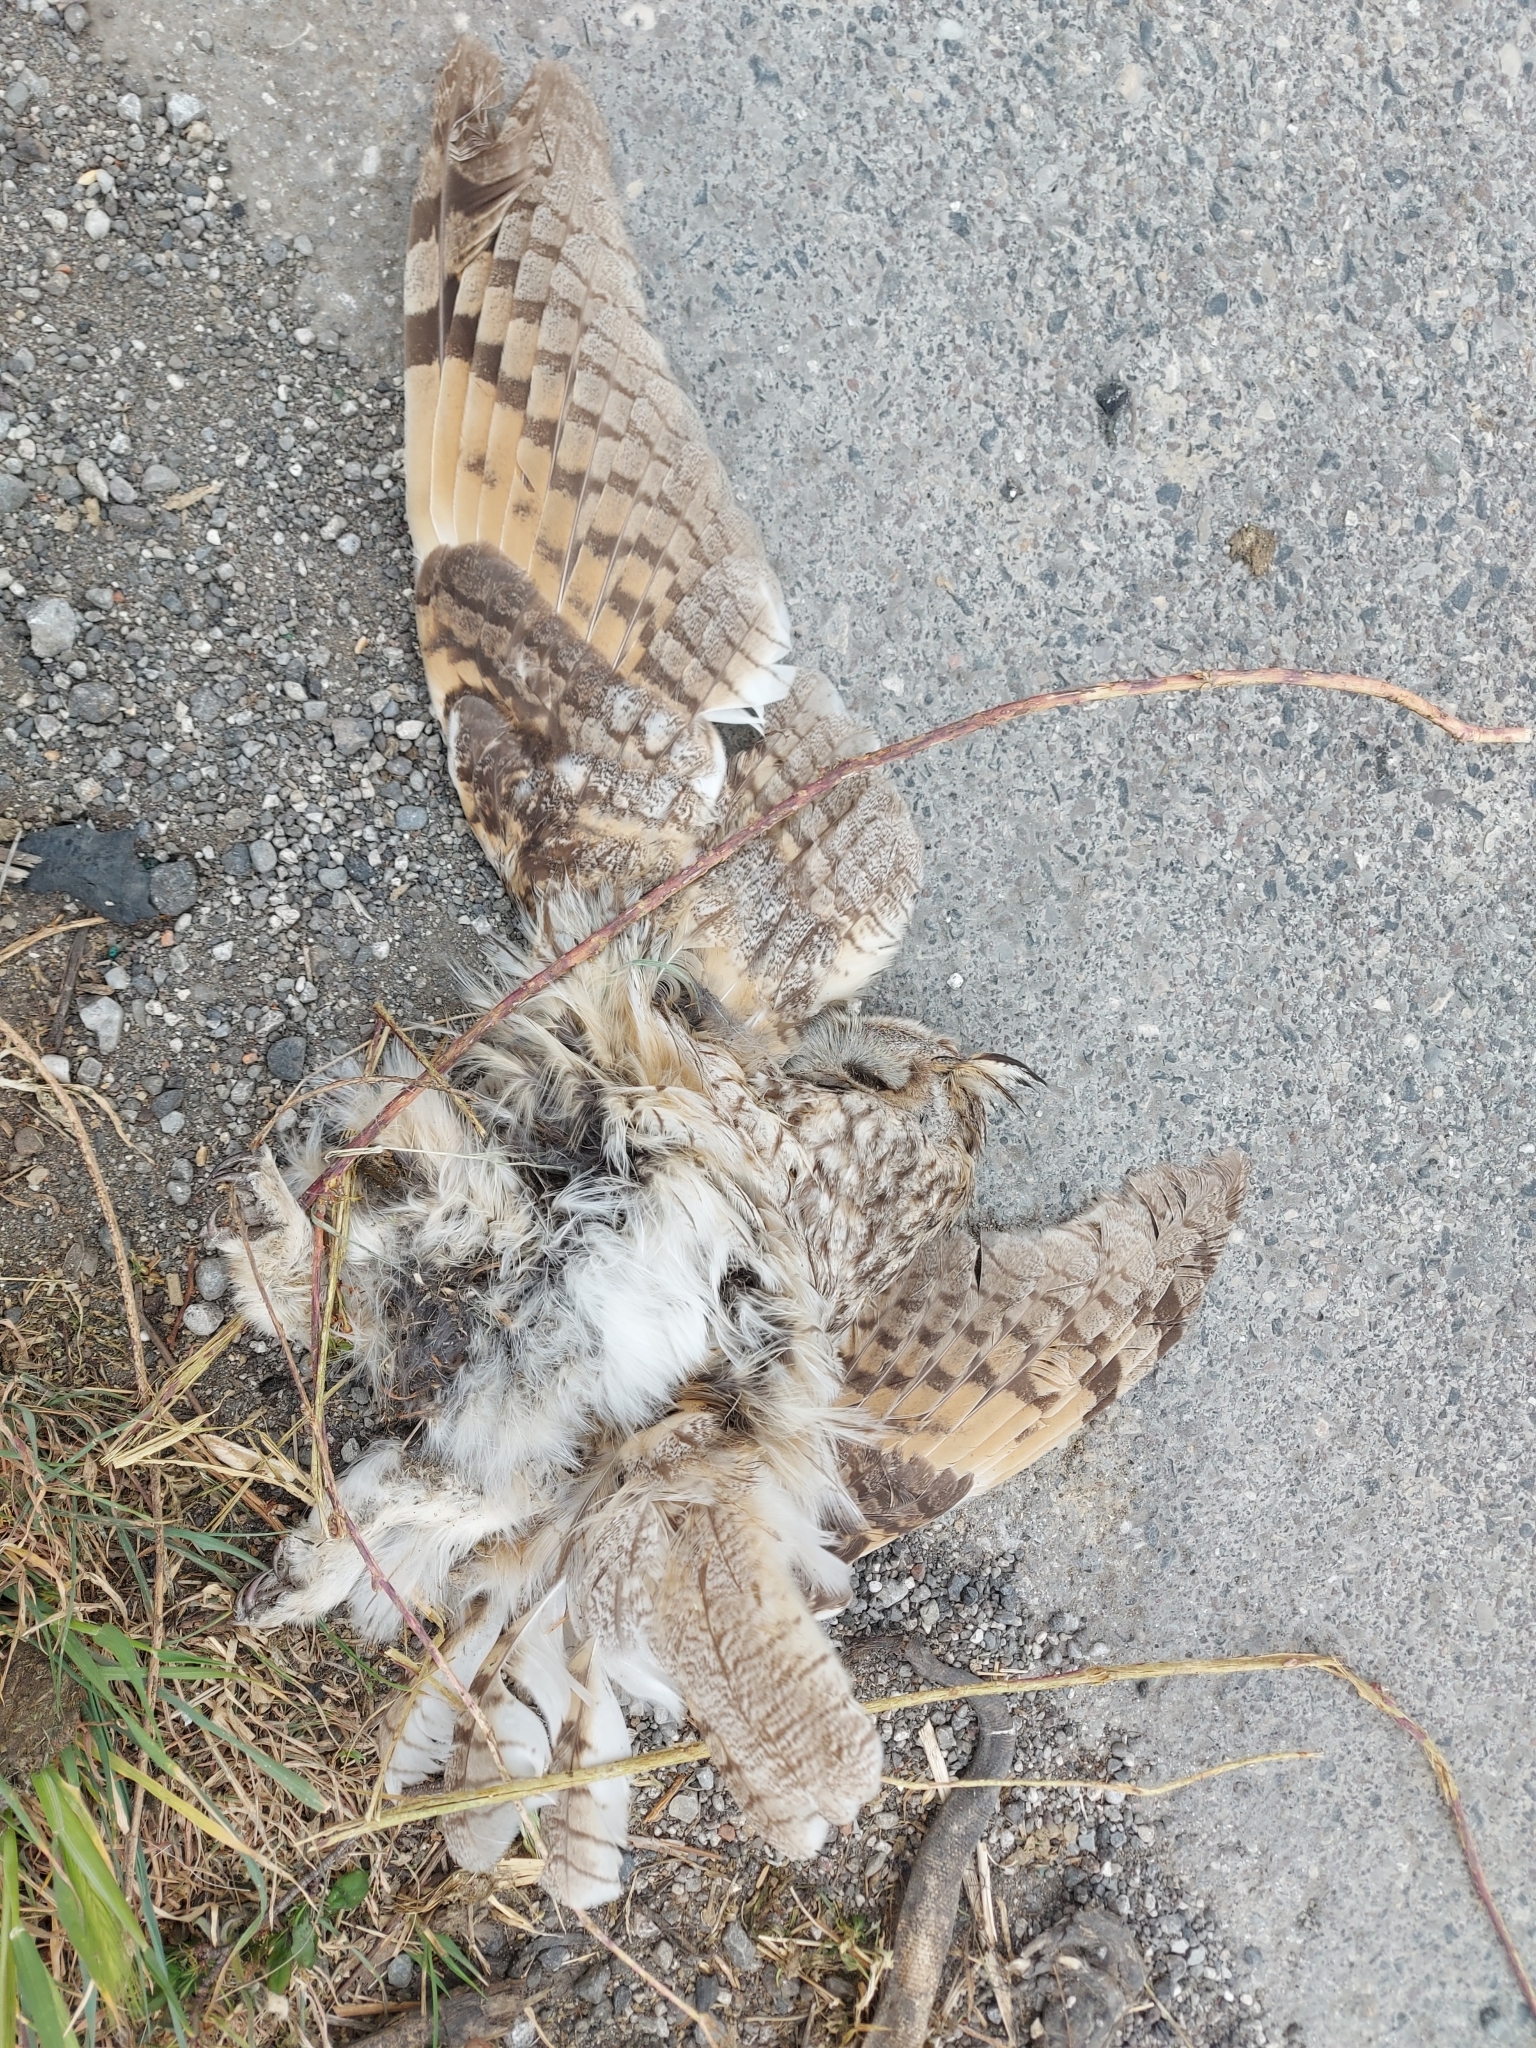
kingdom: Animalia
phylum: Chordata
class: Aves
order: Strigiformes
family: Strigidae
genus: Asio
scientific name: Asio otus
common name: Long-eared owl
